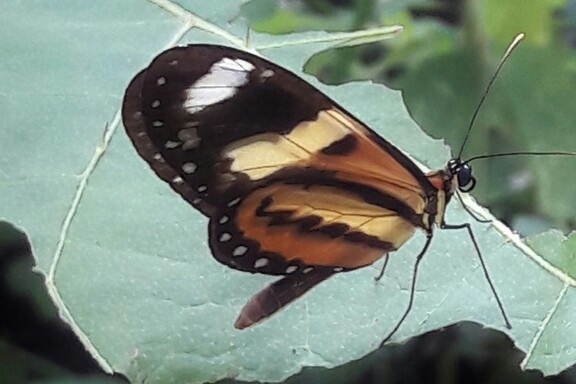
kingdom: Animalia
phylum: Arthropoda
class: Insecta
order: Lepidoptera
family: Nymphalidae
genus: Mechanitis
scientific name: Mechanitis lysimnia
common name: Lysimnia tigerwing
